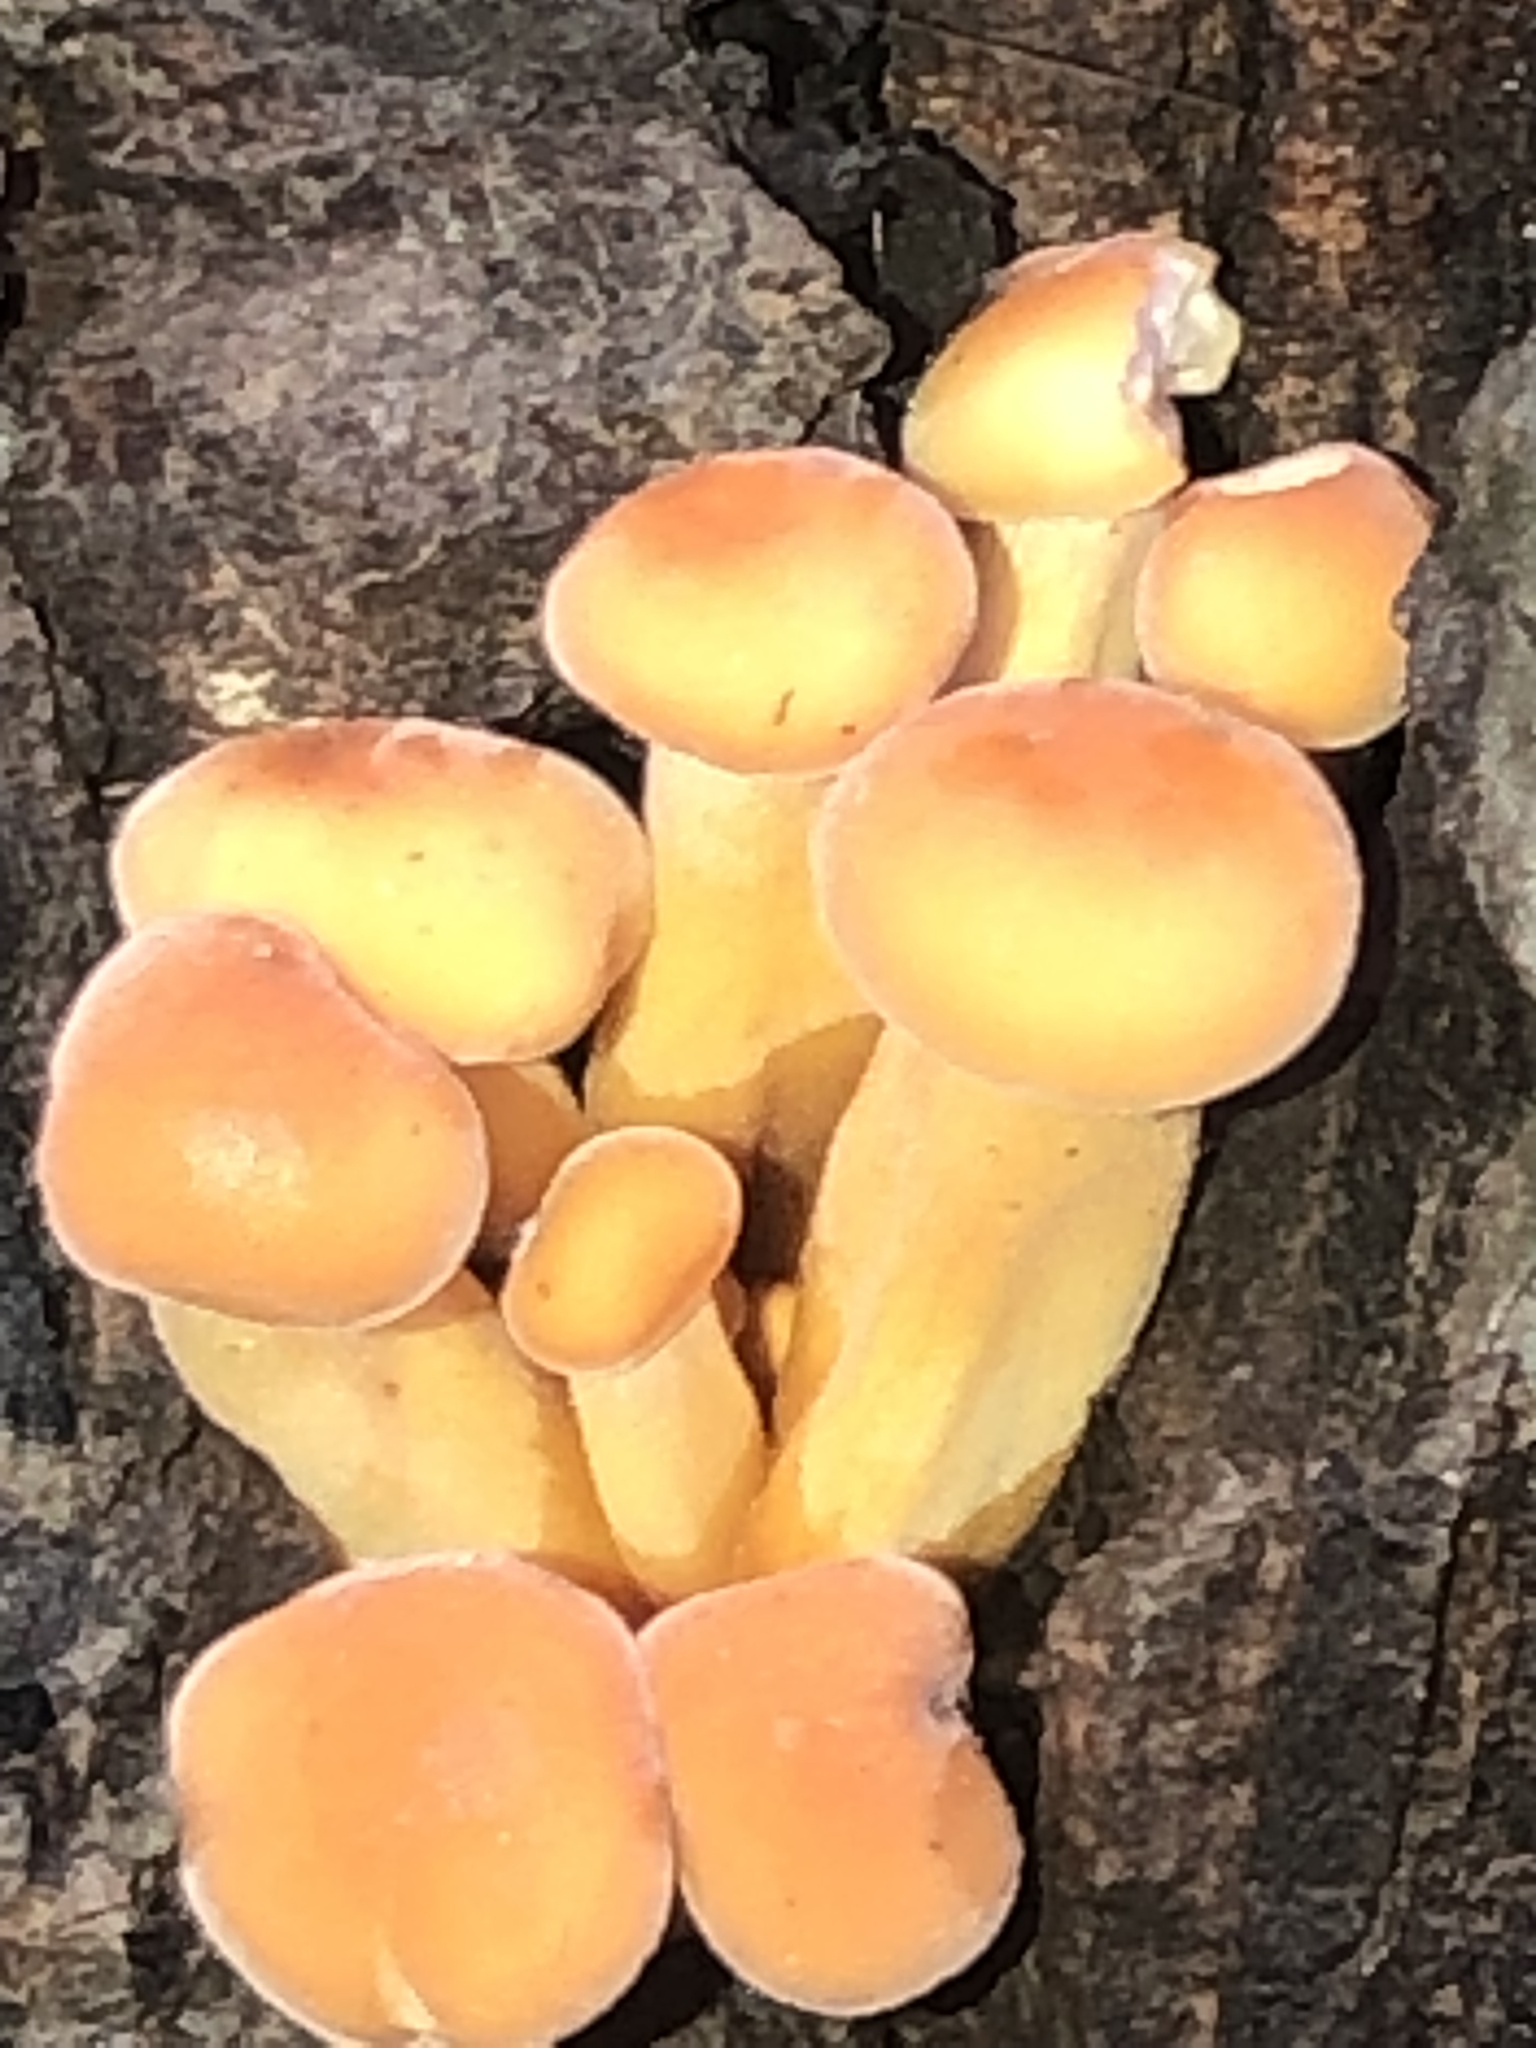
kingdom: Fungi
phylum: Basidiomycota
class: Agaricomycetes
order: Agaricales
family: Physalacriaceae
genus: Flammulina
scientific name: Flammulina velutipes
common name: Velvet shank
